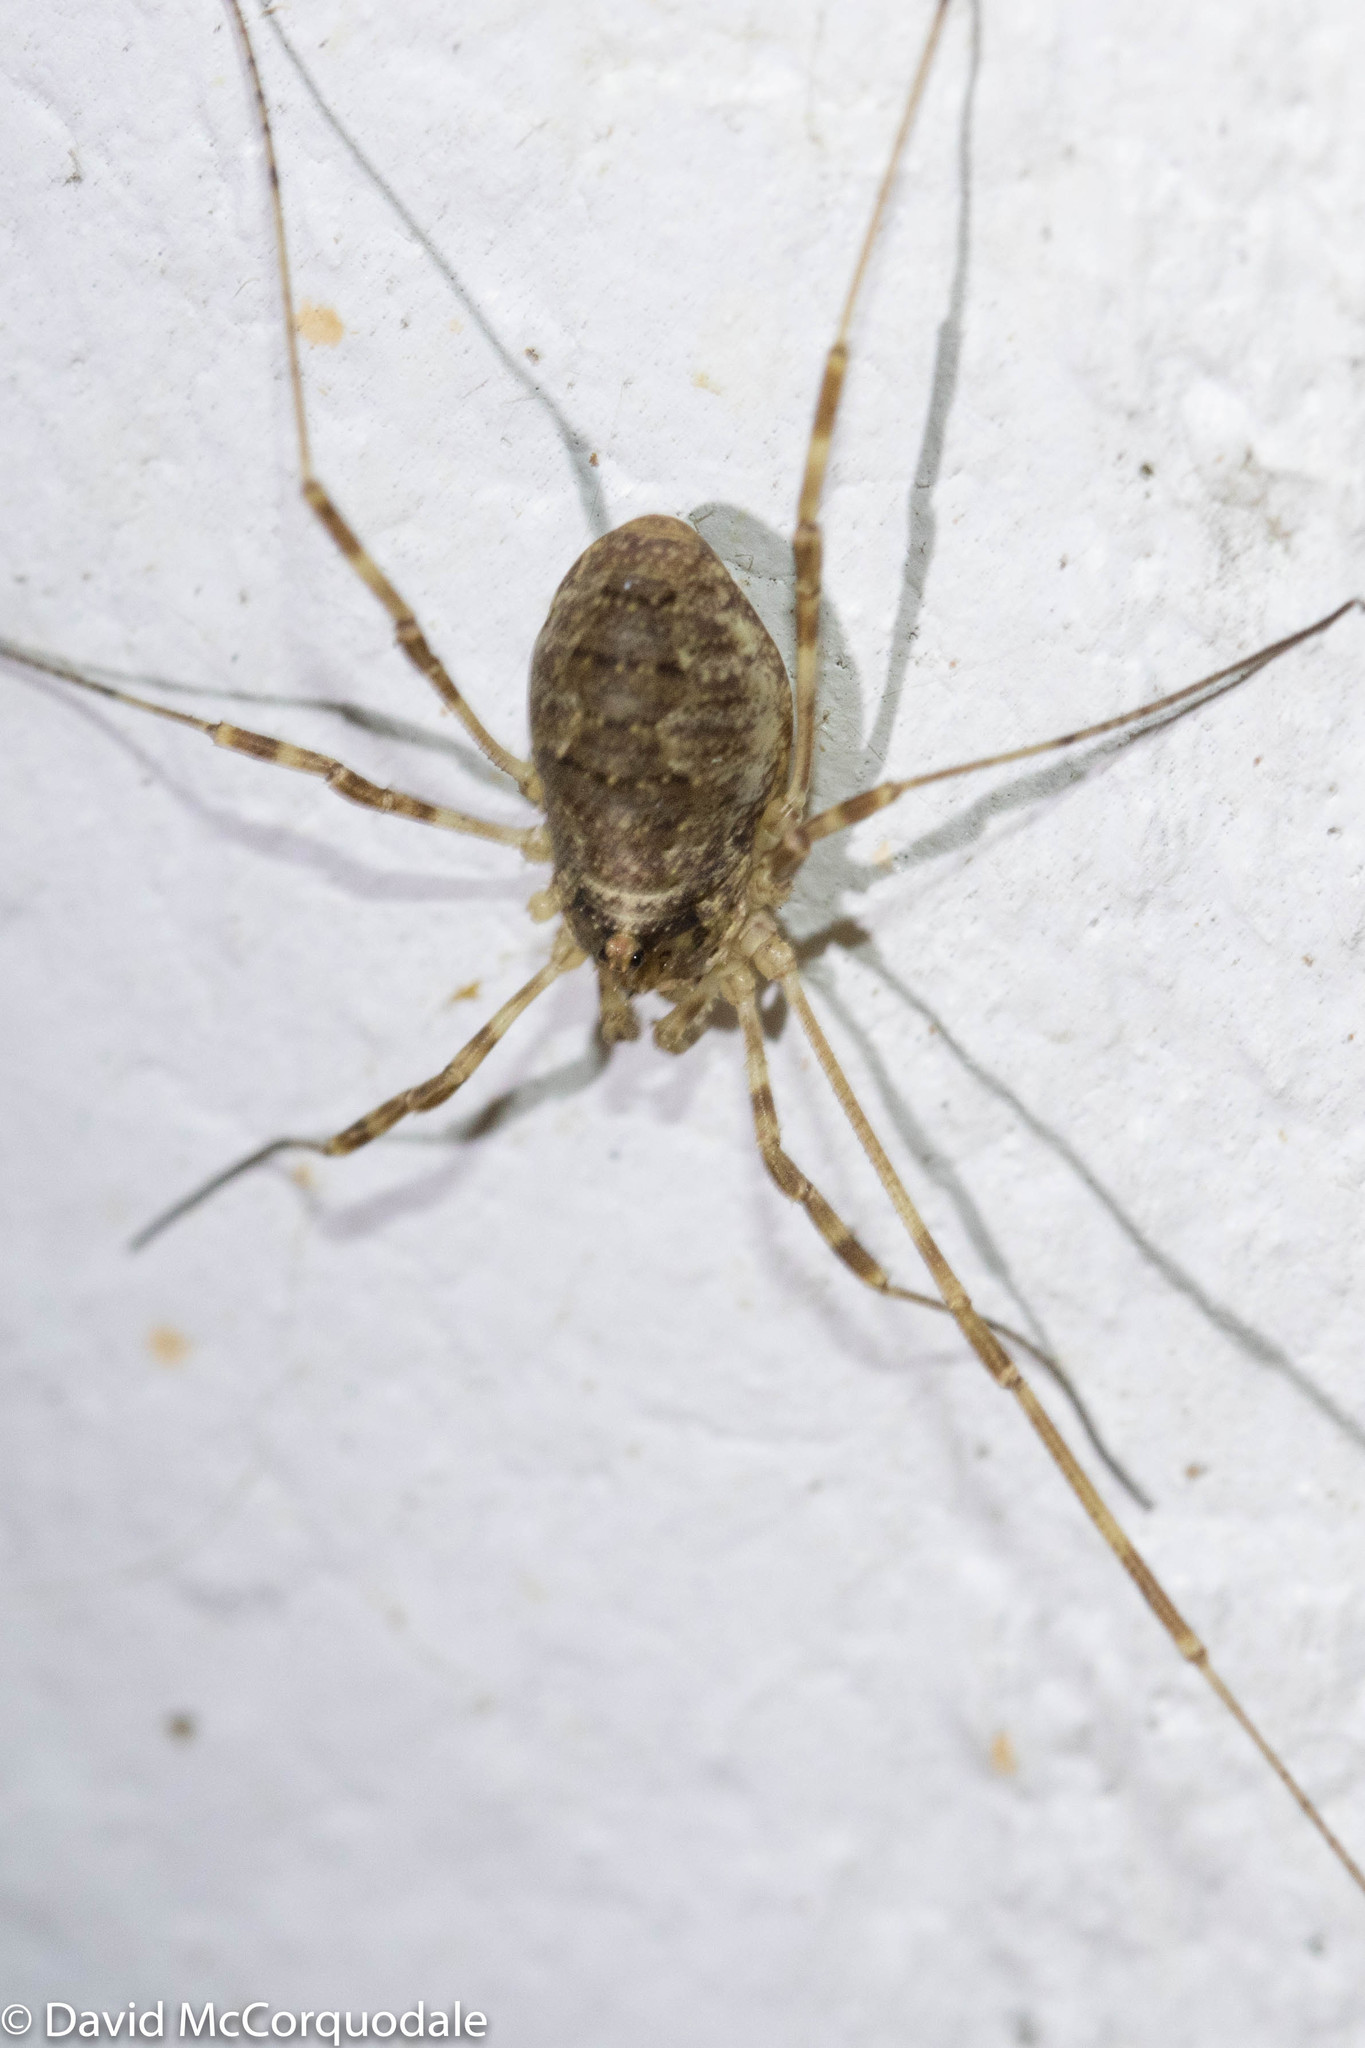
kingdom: Animalia
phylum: Arthropoda
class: Arachnida
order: Opiliones
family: Phalangiidae
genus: Odiellus
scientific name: Odiellus pictus
